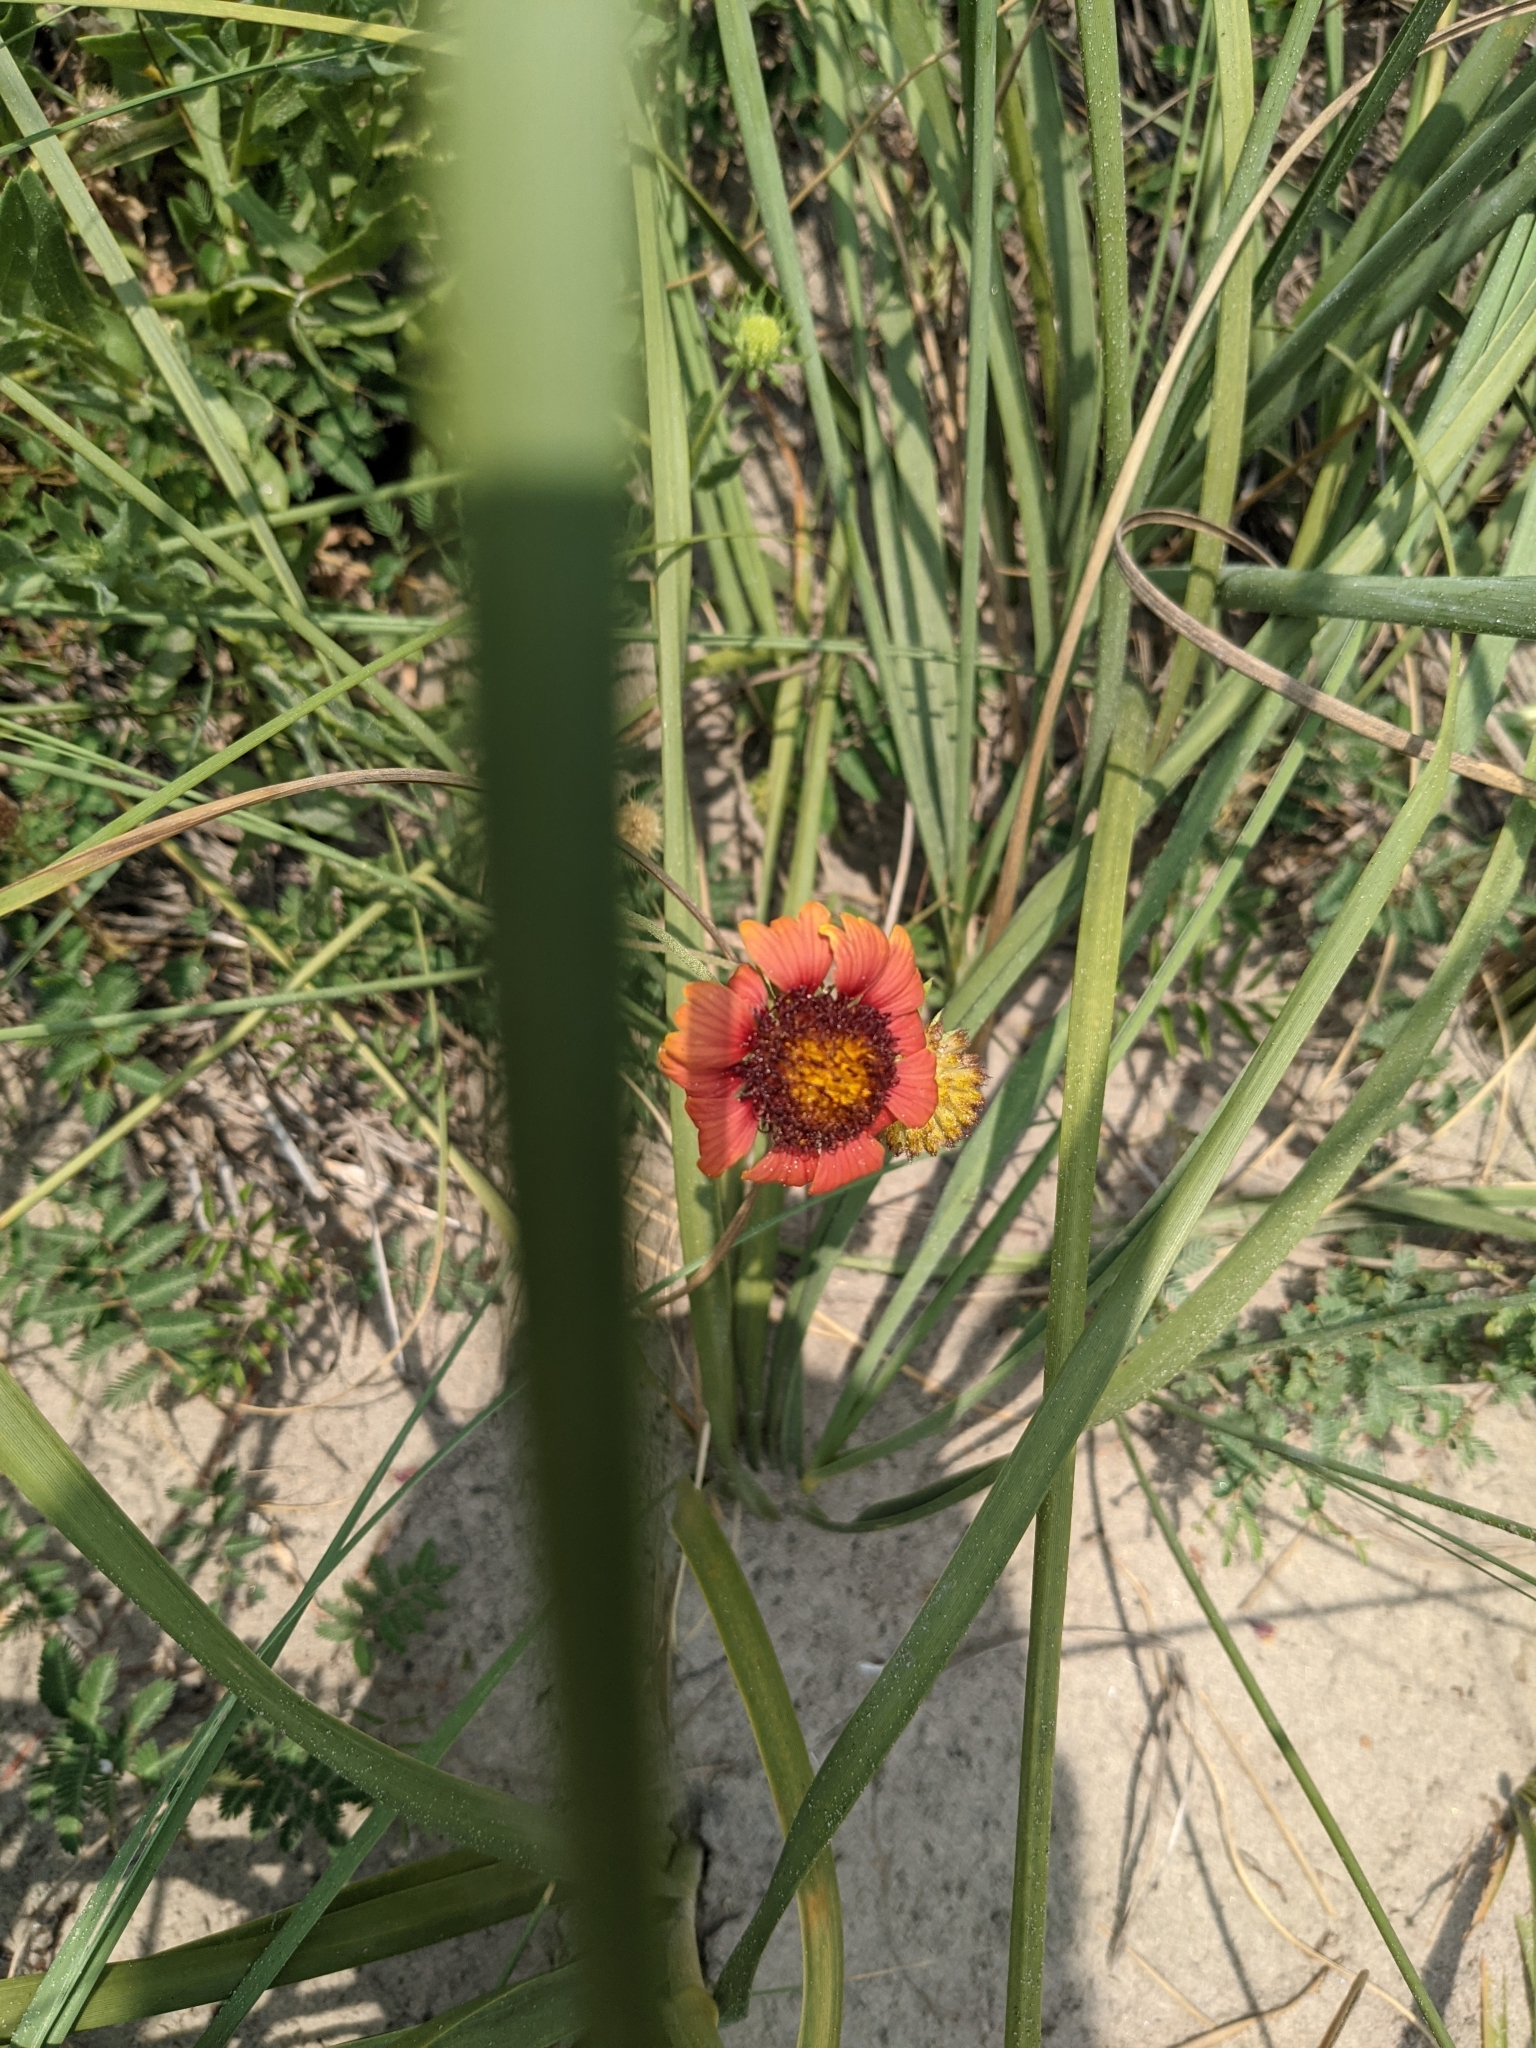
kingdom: Plantae
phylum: Tracheophyta
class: Magnoliopsida
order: Asterales
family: Asteraceae
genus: Gaillardia
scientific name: Gaillardia pulchella
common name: Firewheel
